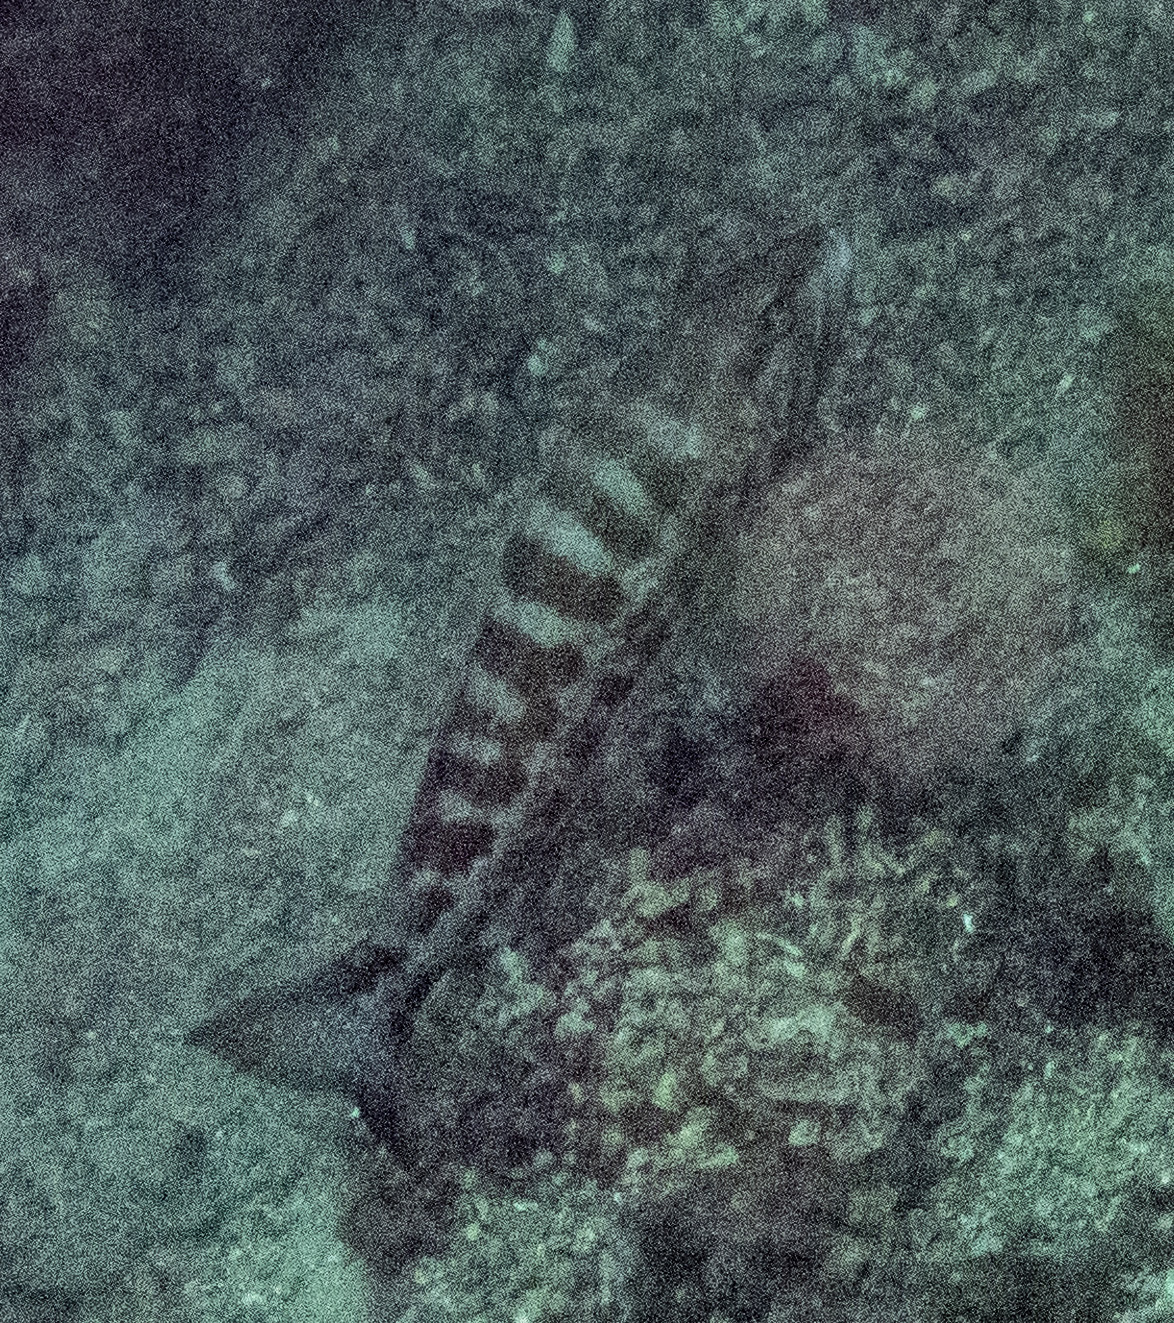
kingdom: Animalia
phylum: Chordata
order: Perciformes
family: Serranidae
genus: Serranus
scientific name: Serranus cabrilla
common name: Comber
